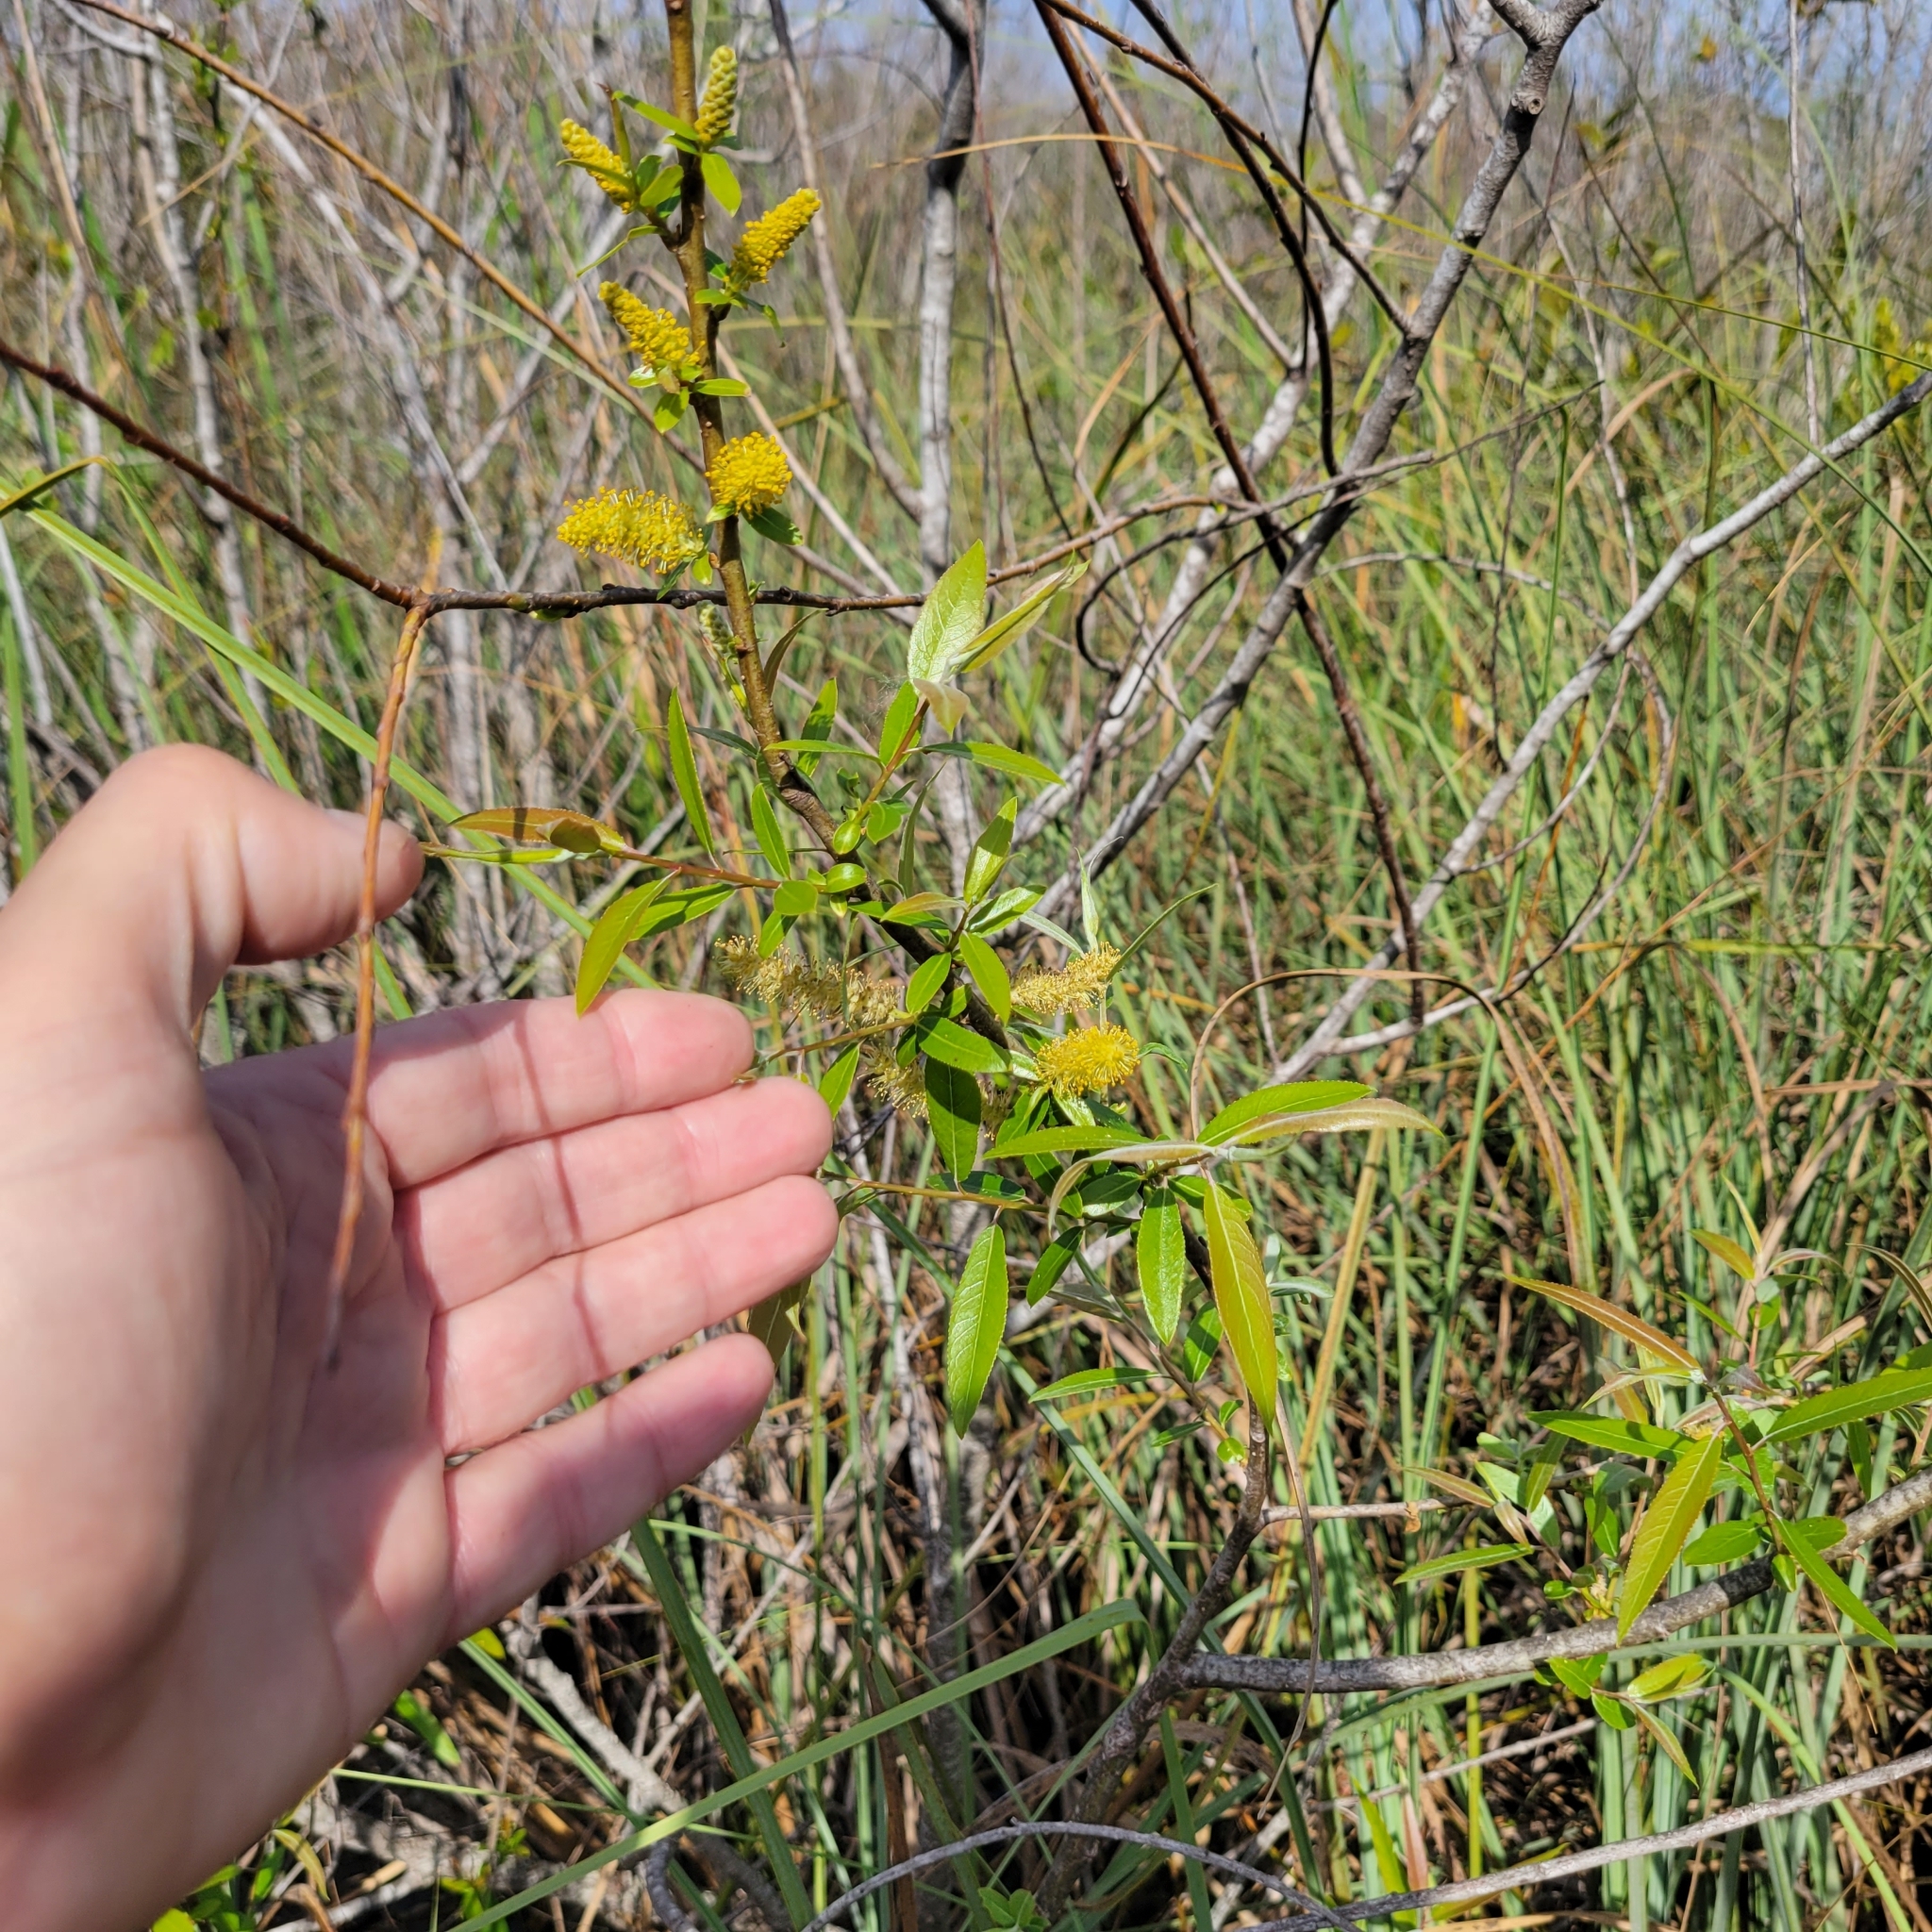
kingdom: Plantae
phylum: Tracheophyta
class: Magnoliopsida
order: Malpighiales
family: Salicaceae
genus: Salix
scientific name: Salix caroliniana
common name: Carolina willow
